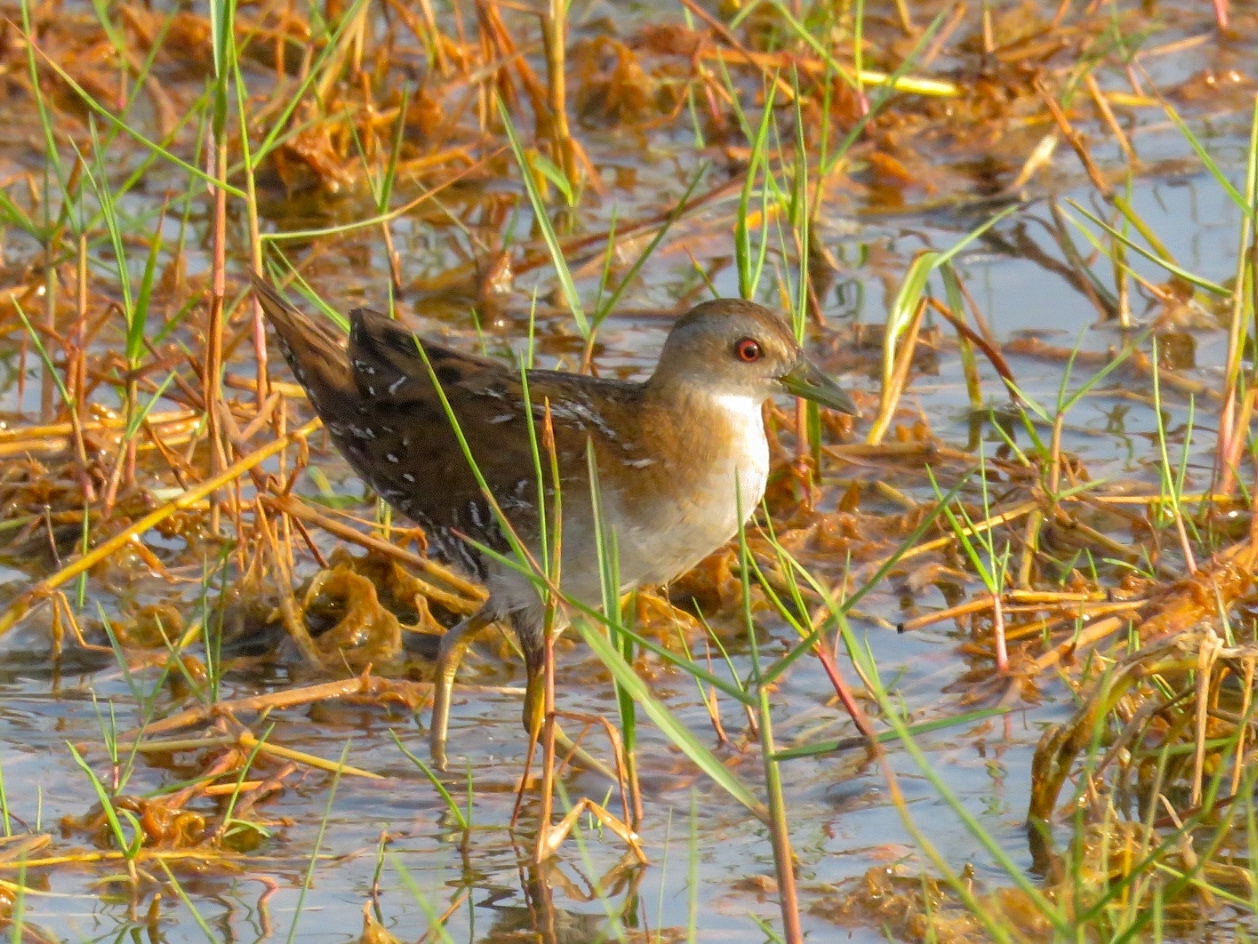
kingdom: Animalia
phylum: Chordata
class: Aves
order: Gruiformes
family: Rallidae
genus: Porzana
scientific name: Porzana pusilla
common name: Baillon's crake
